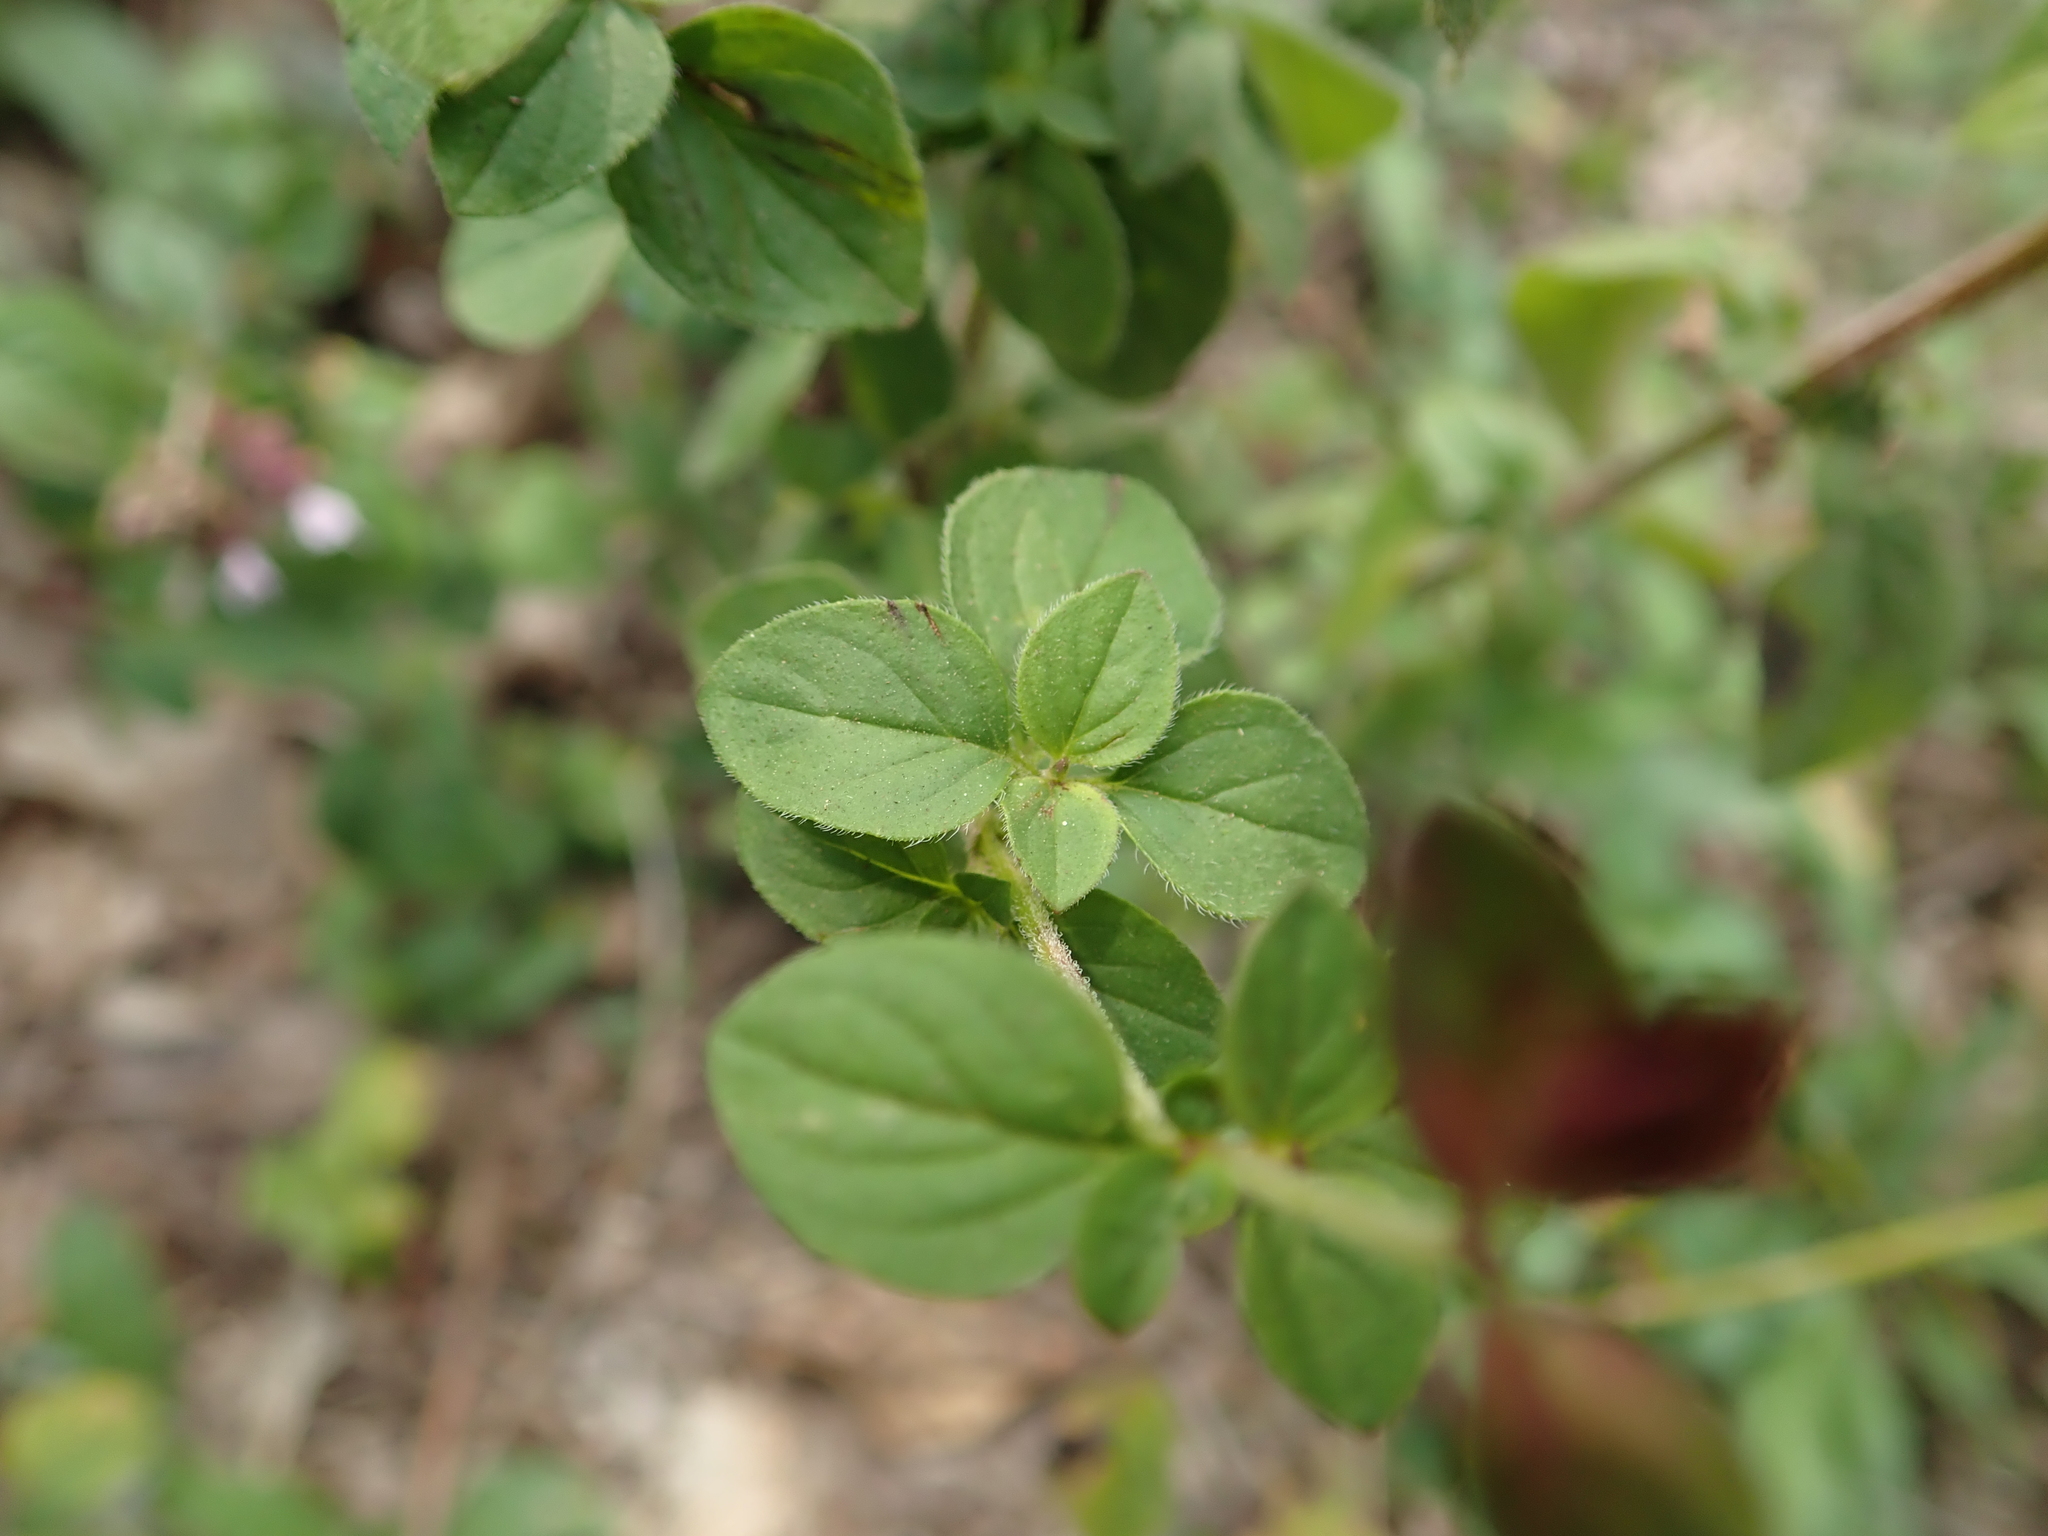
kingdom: Plantae
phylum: Tracheophyta
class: Magnoliopsida
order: Lamiales
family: Lamiaceae
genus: Origanum
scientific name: Origanum vulgare
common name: Wild marjoram
